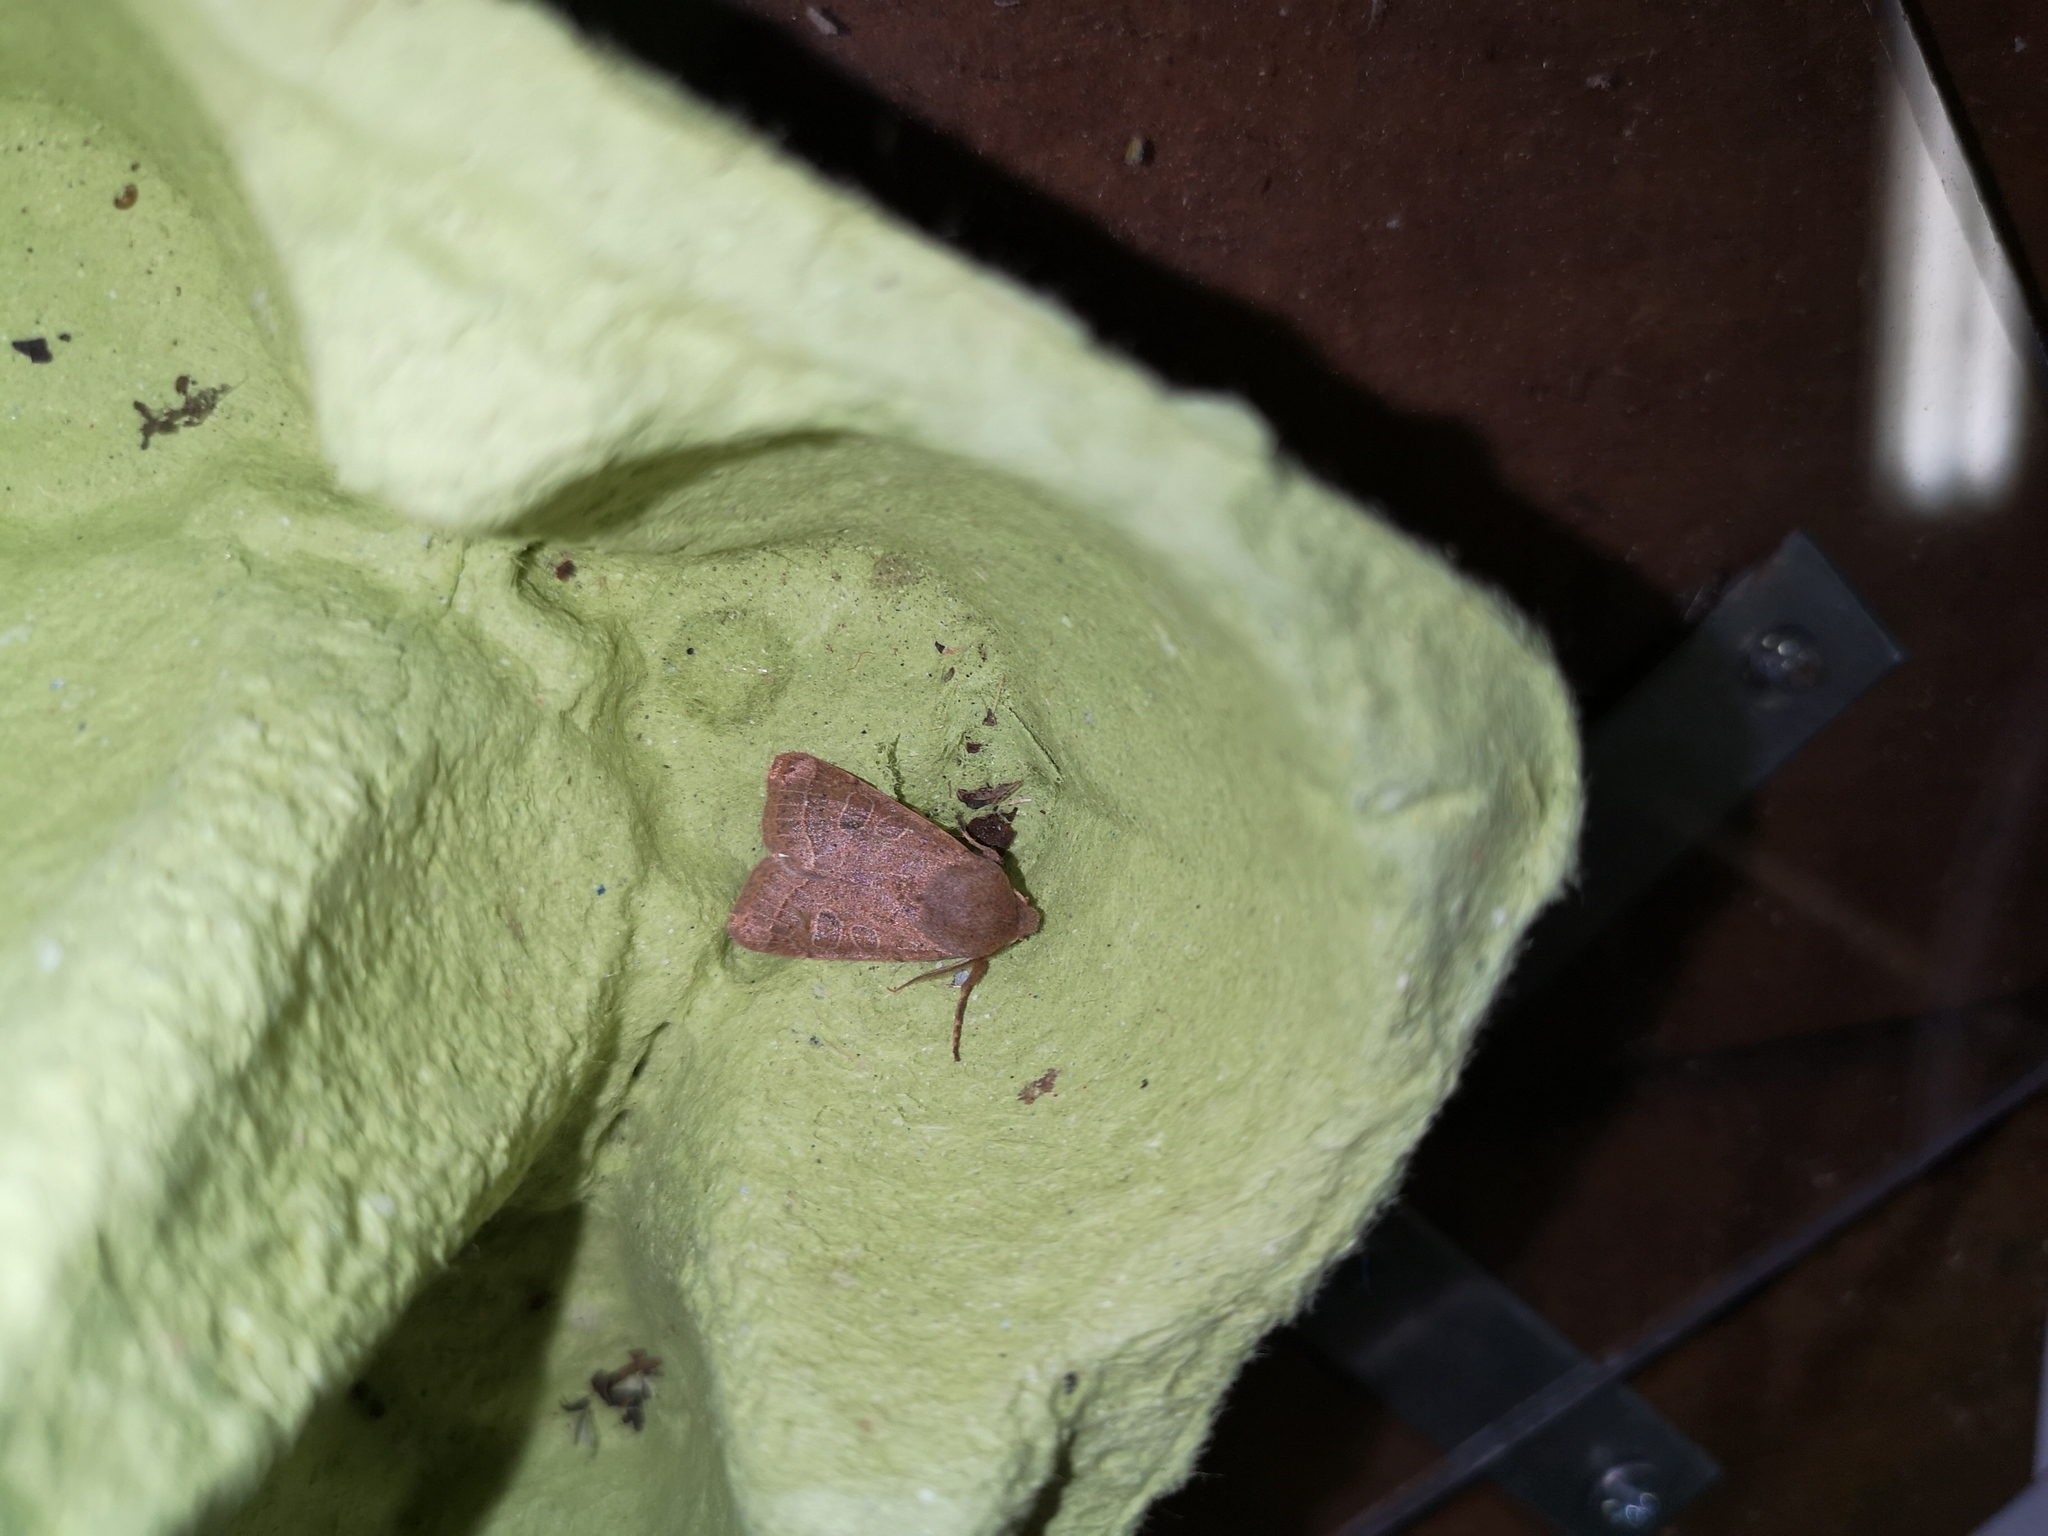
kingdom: Animalia
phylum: Arthropoda
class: Insecta
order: Lepidoptera
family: Noctuidae
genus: Orthosia
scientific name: Orthosia cerasi
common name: Common quaker
